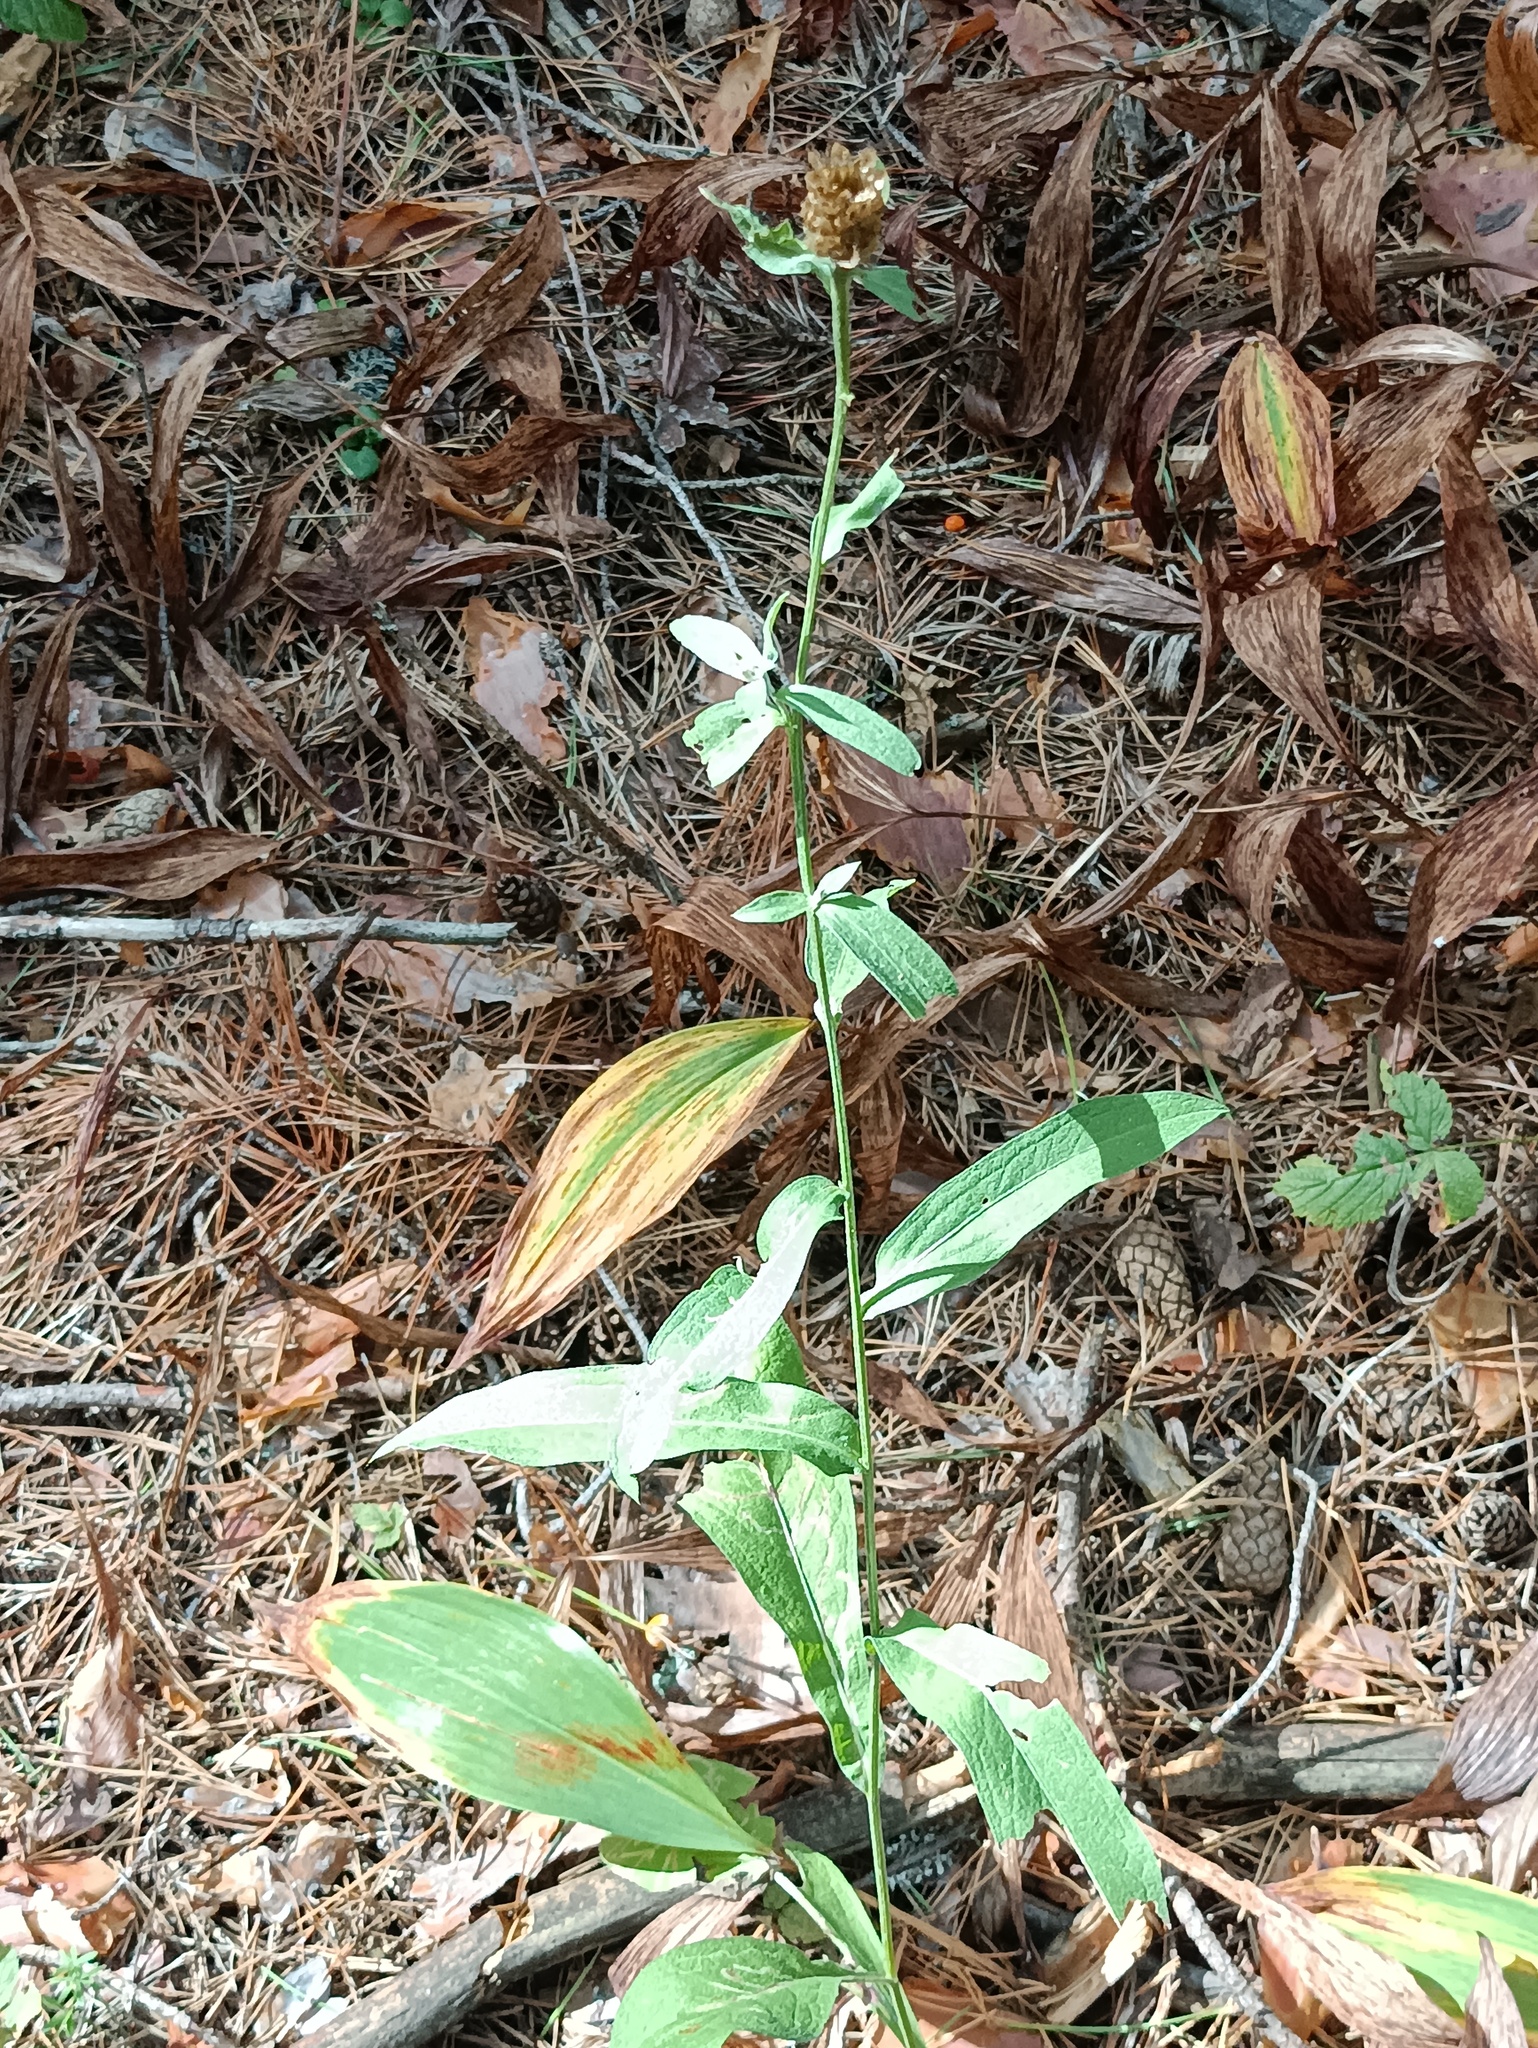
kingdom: Plantae
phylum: Tracheophyta
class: Magnoliopsida
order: Asterales
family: Asteraceae
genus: Centaurea
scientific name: Centaurea jacea
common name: Brown knapweed
